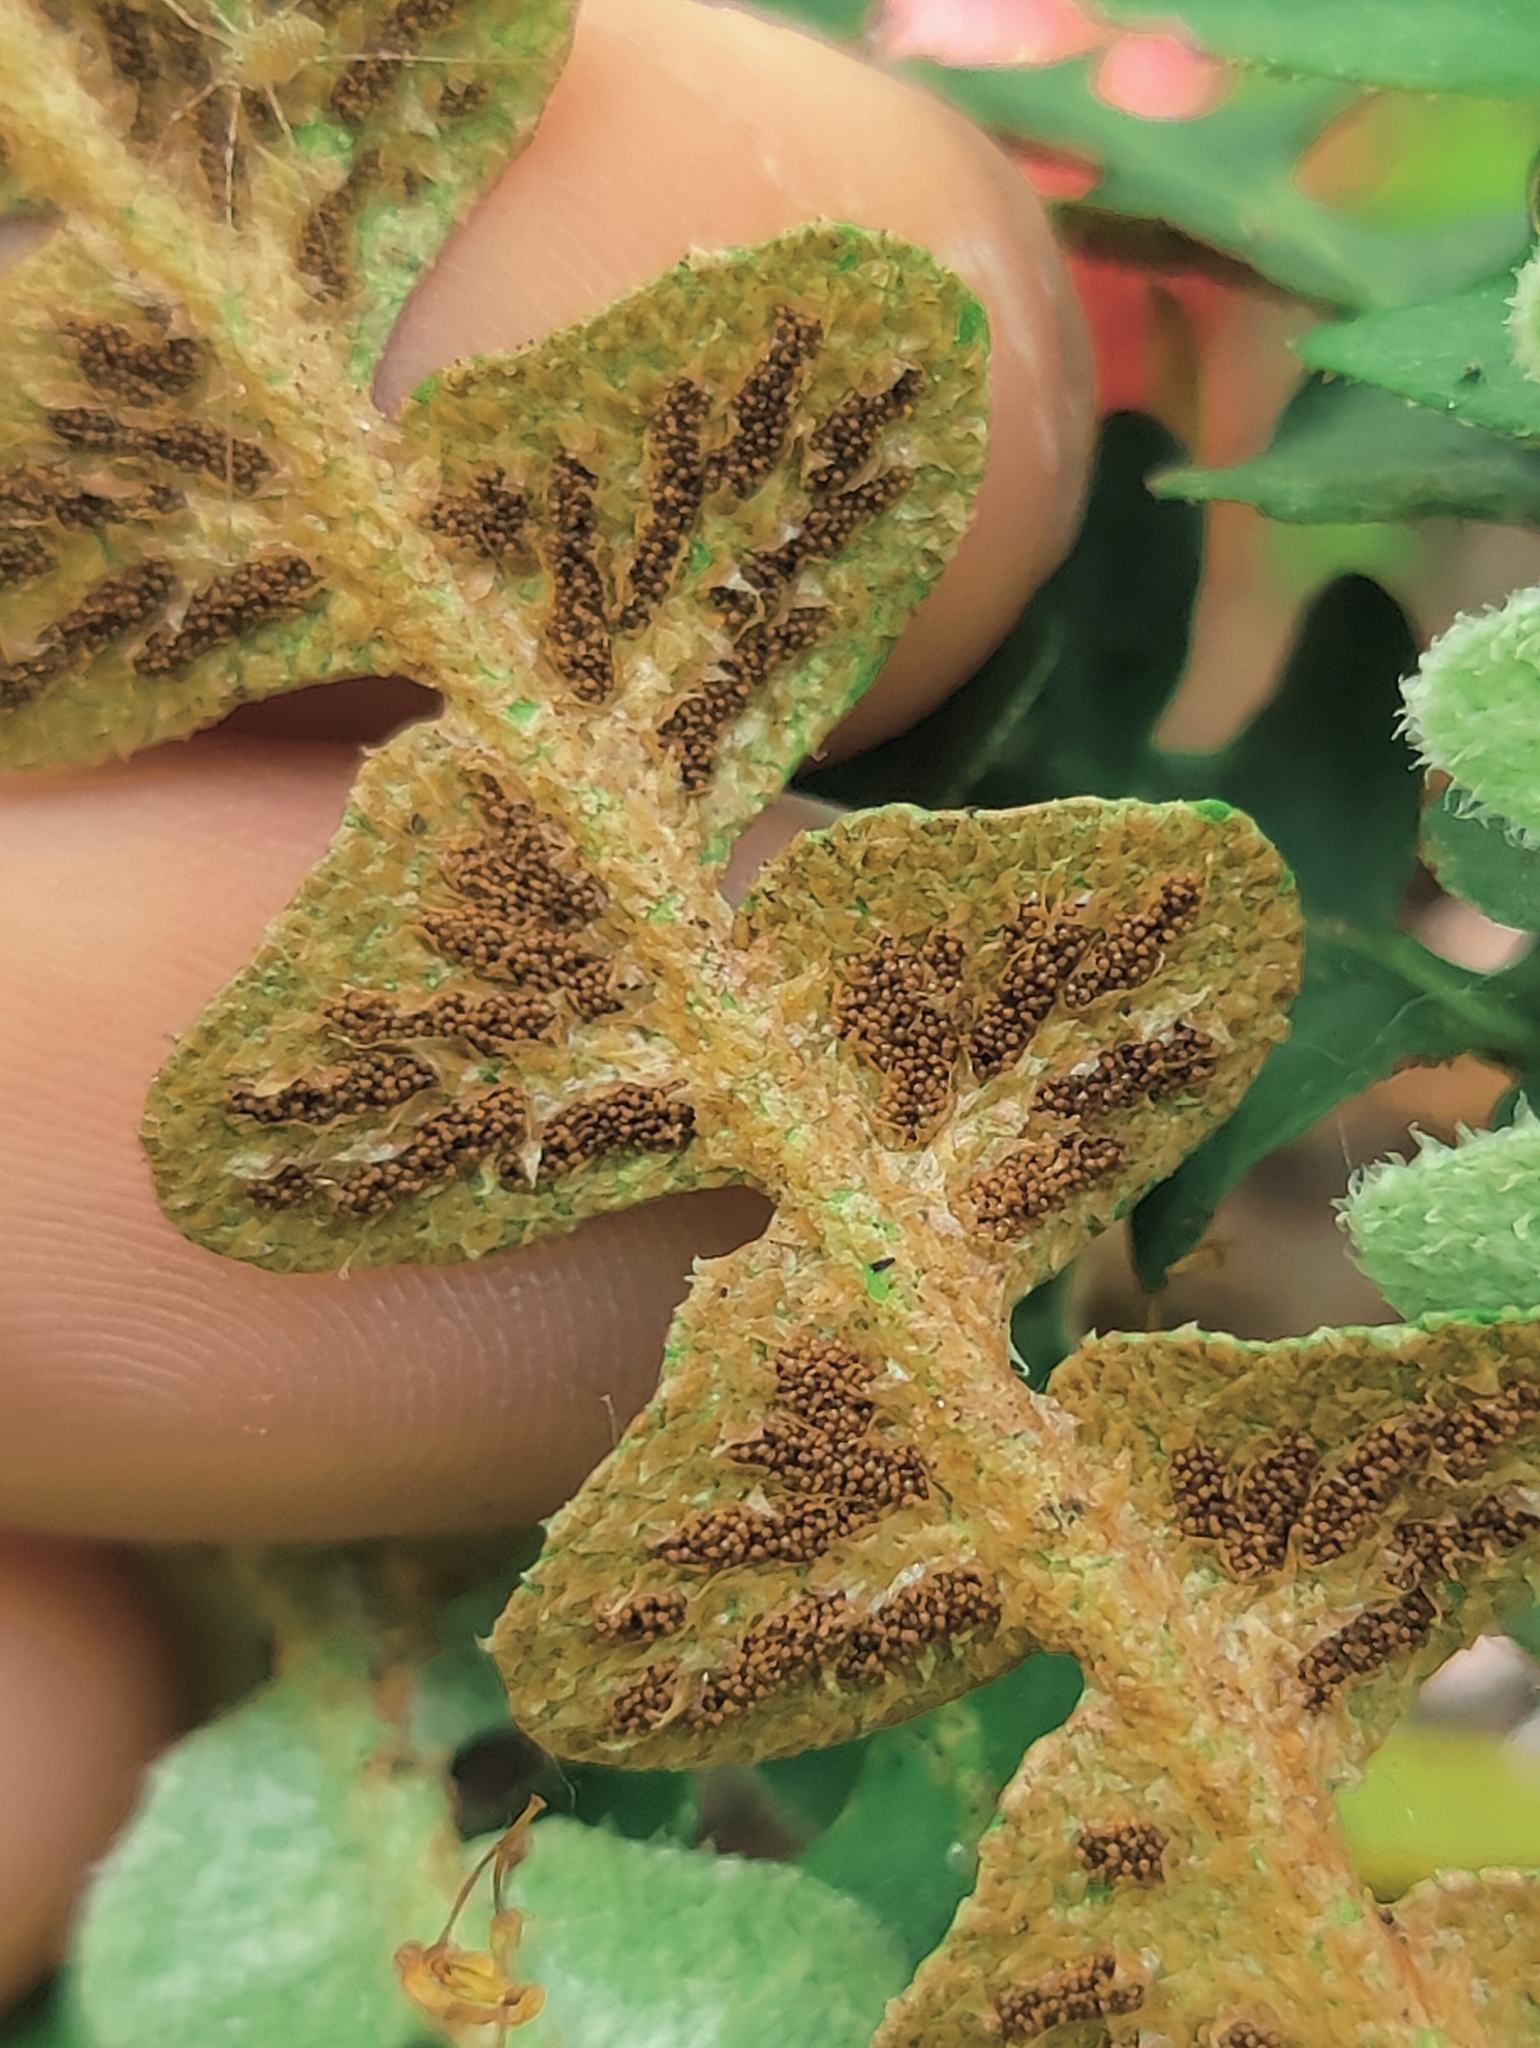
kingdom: Plantae
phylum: Tracheophyta
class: Polypodiopsida
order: Polypodiales
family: Aspleniaceae
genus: Asplenium
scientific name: Asplenium ceterach
